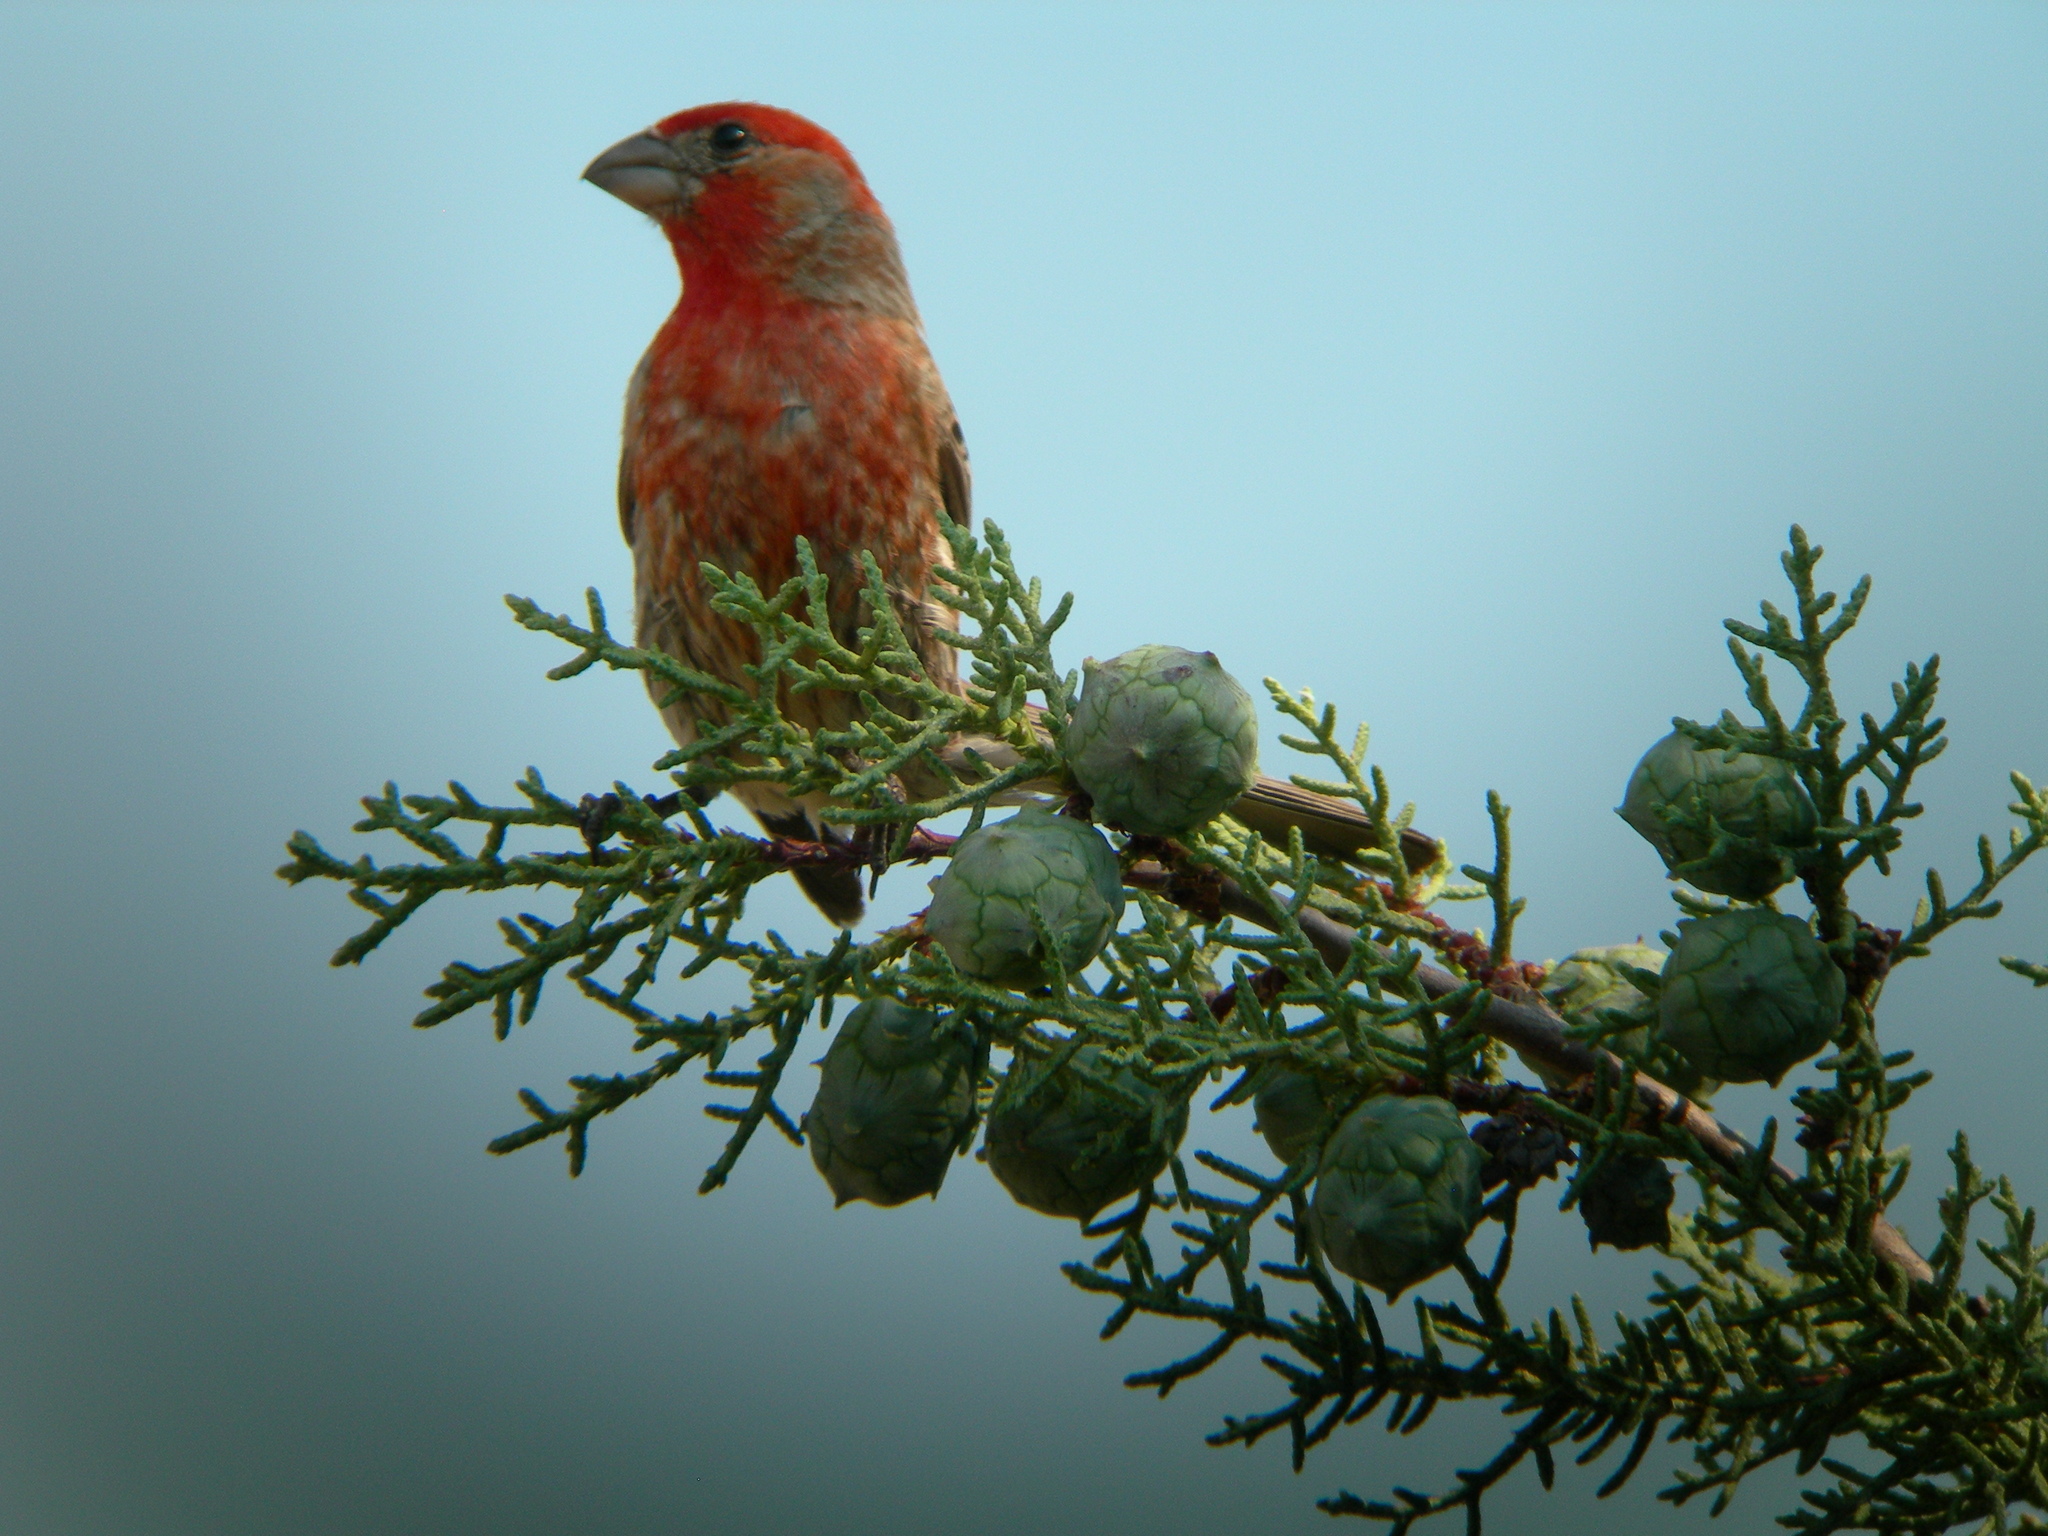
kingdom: Animalia
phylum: Chordata
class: Aves
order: Passeriformes
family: Fringillidae
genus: Haemorhous
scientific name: Haemorhous mexicanus
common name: House finch
